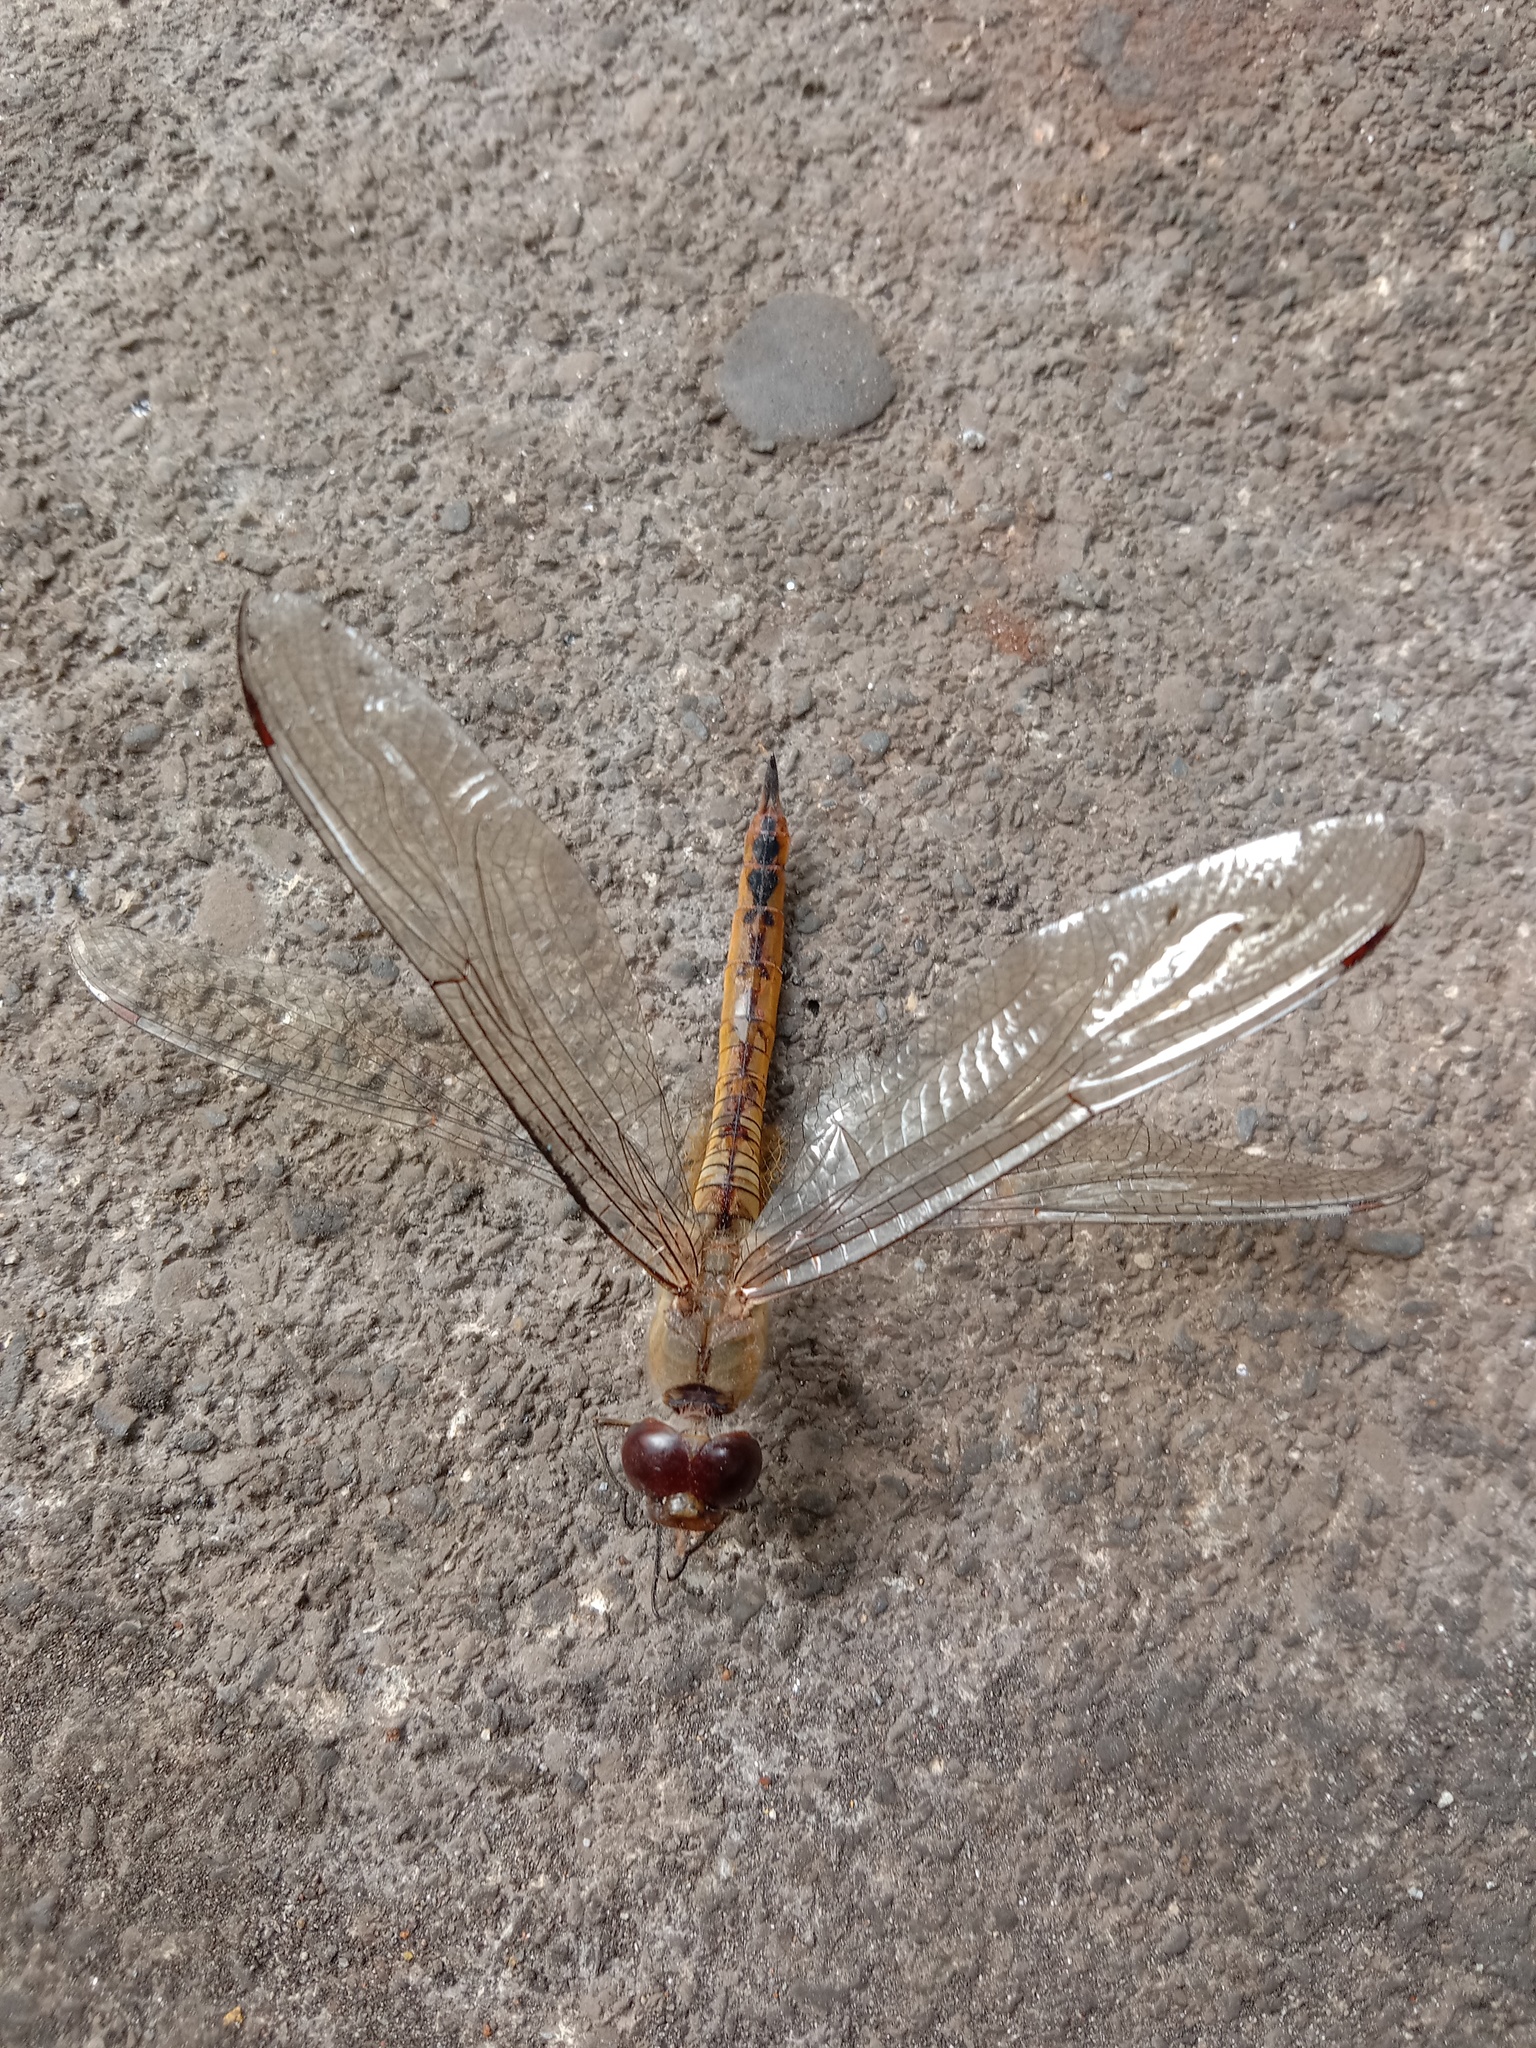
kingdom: Animalia
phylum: Arthropoda
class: Insecta
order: Odonata
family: Libellulidae
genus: Pantala
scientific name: Pantala flavescens
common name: Wandering glider
